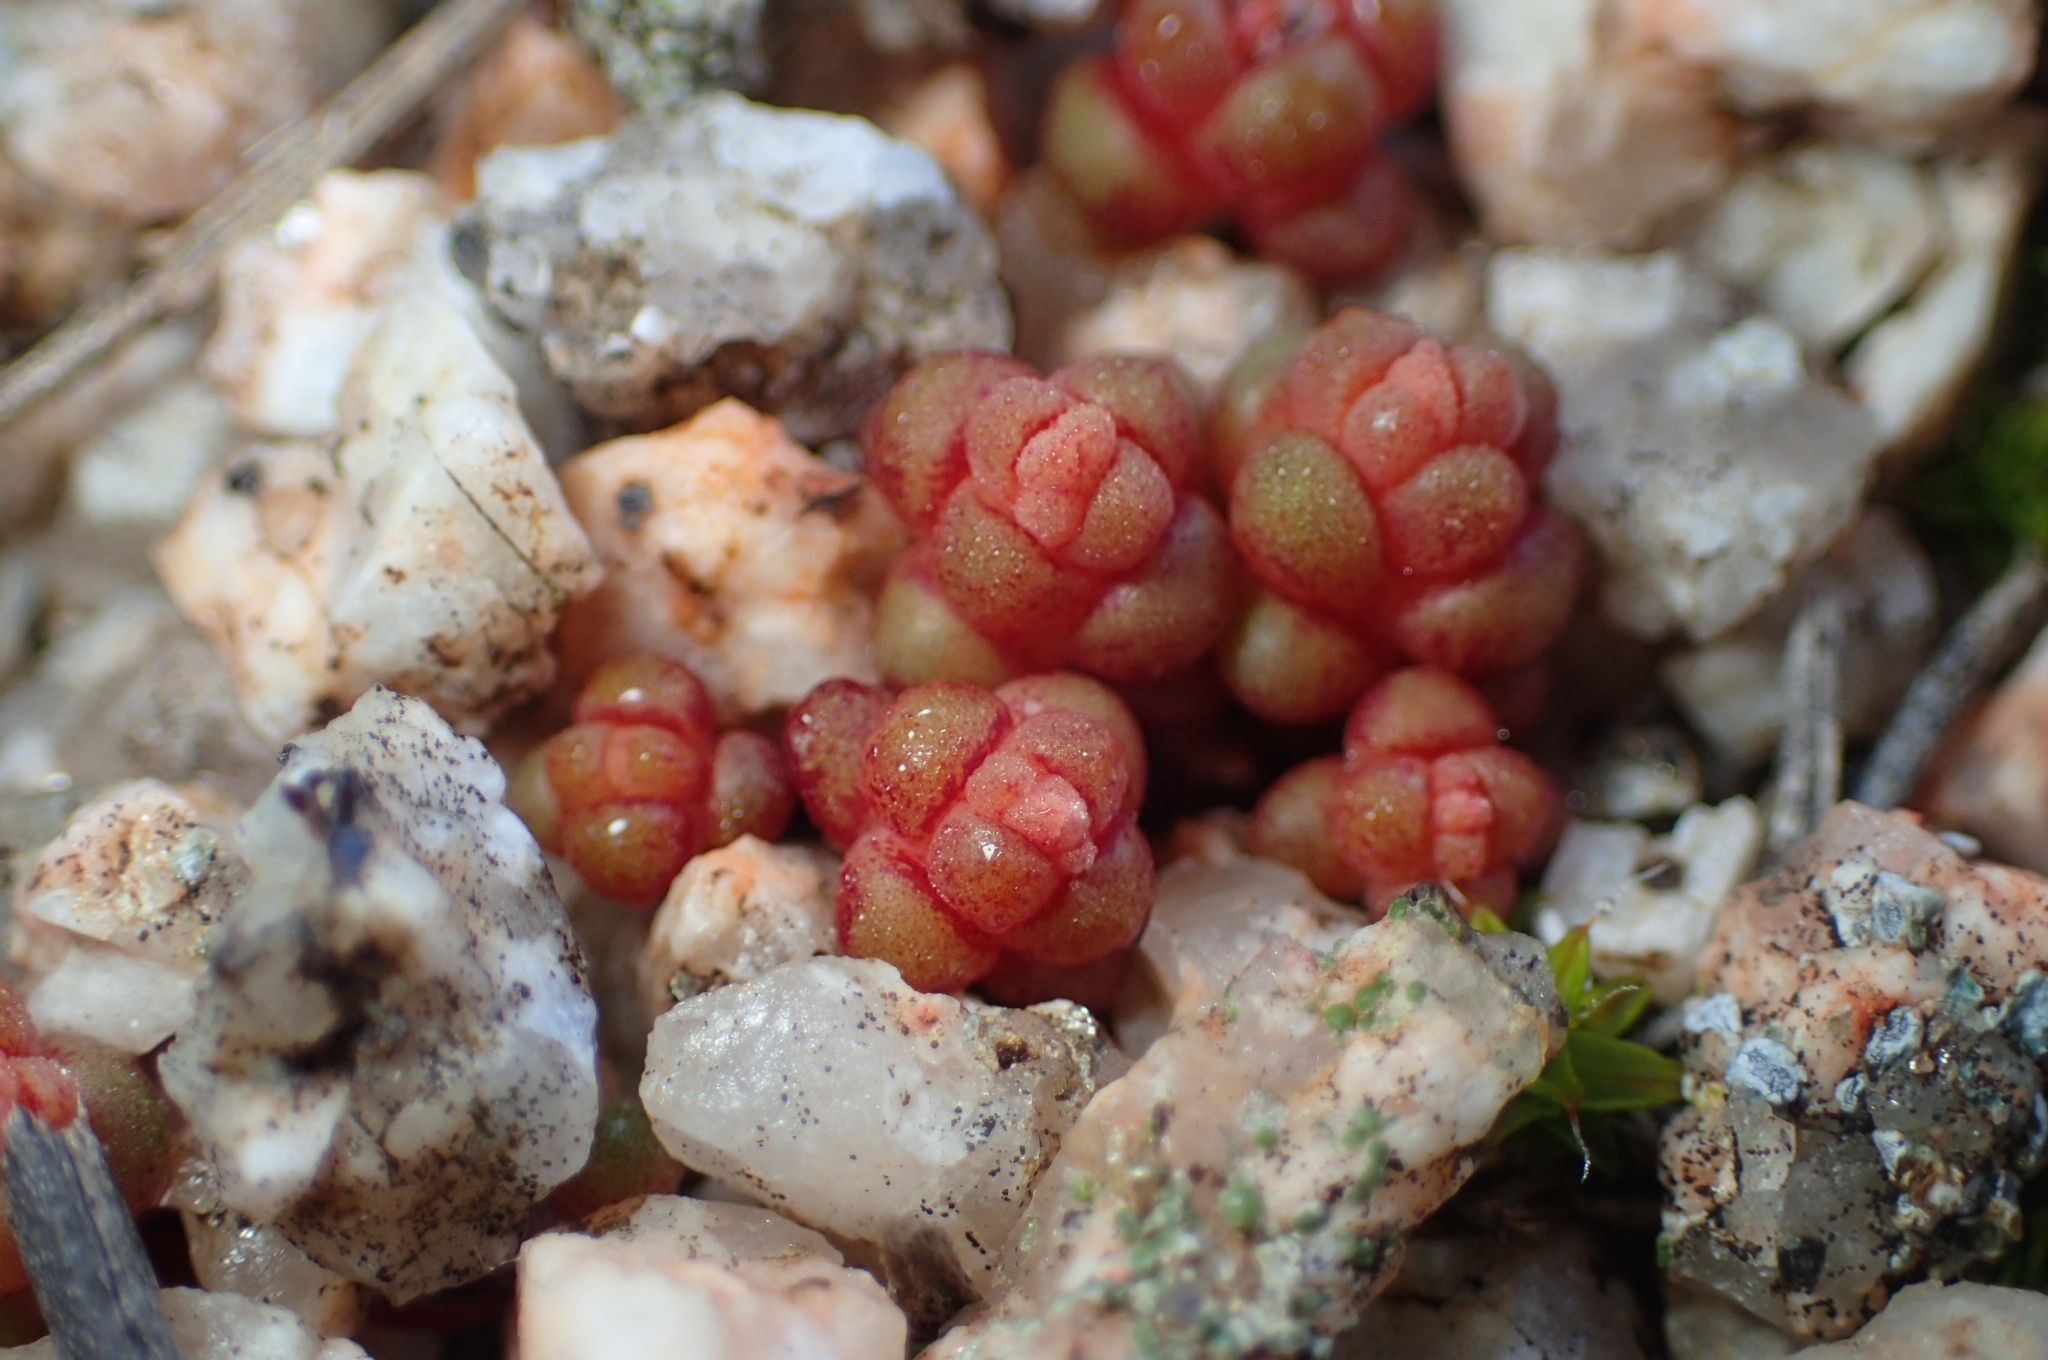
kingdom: Plantae
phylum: Tracheophyta
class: Magnoliopsida
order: Saxifragales
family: Crassulaceae
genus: Sedum
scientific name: Sedum andegavense
